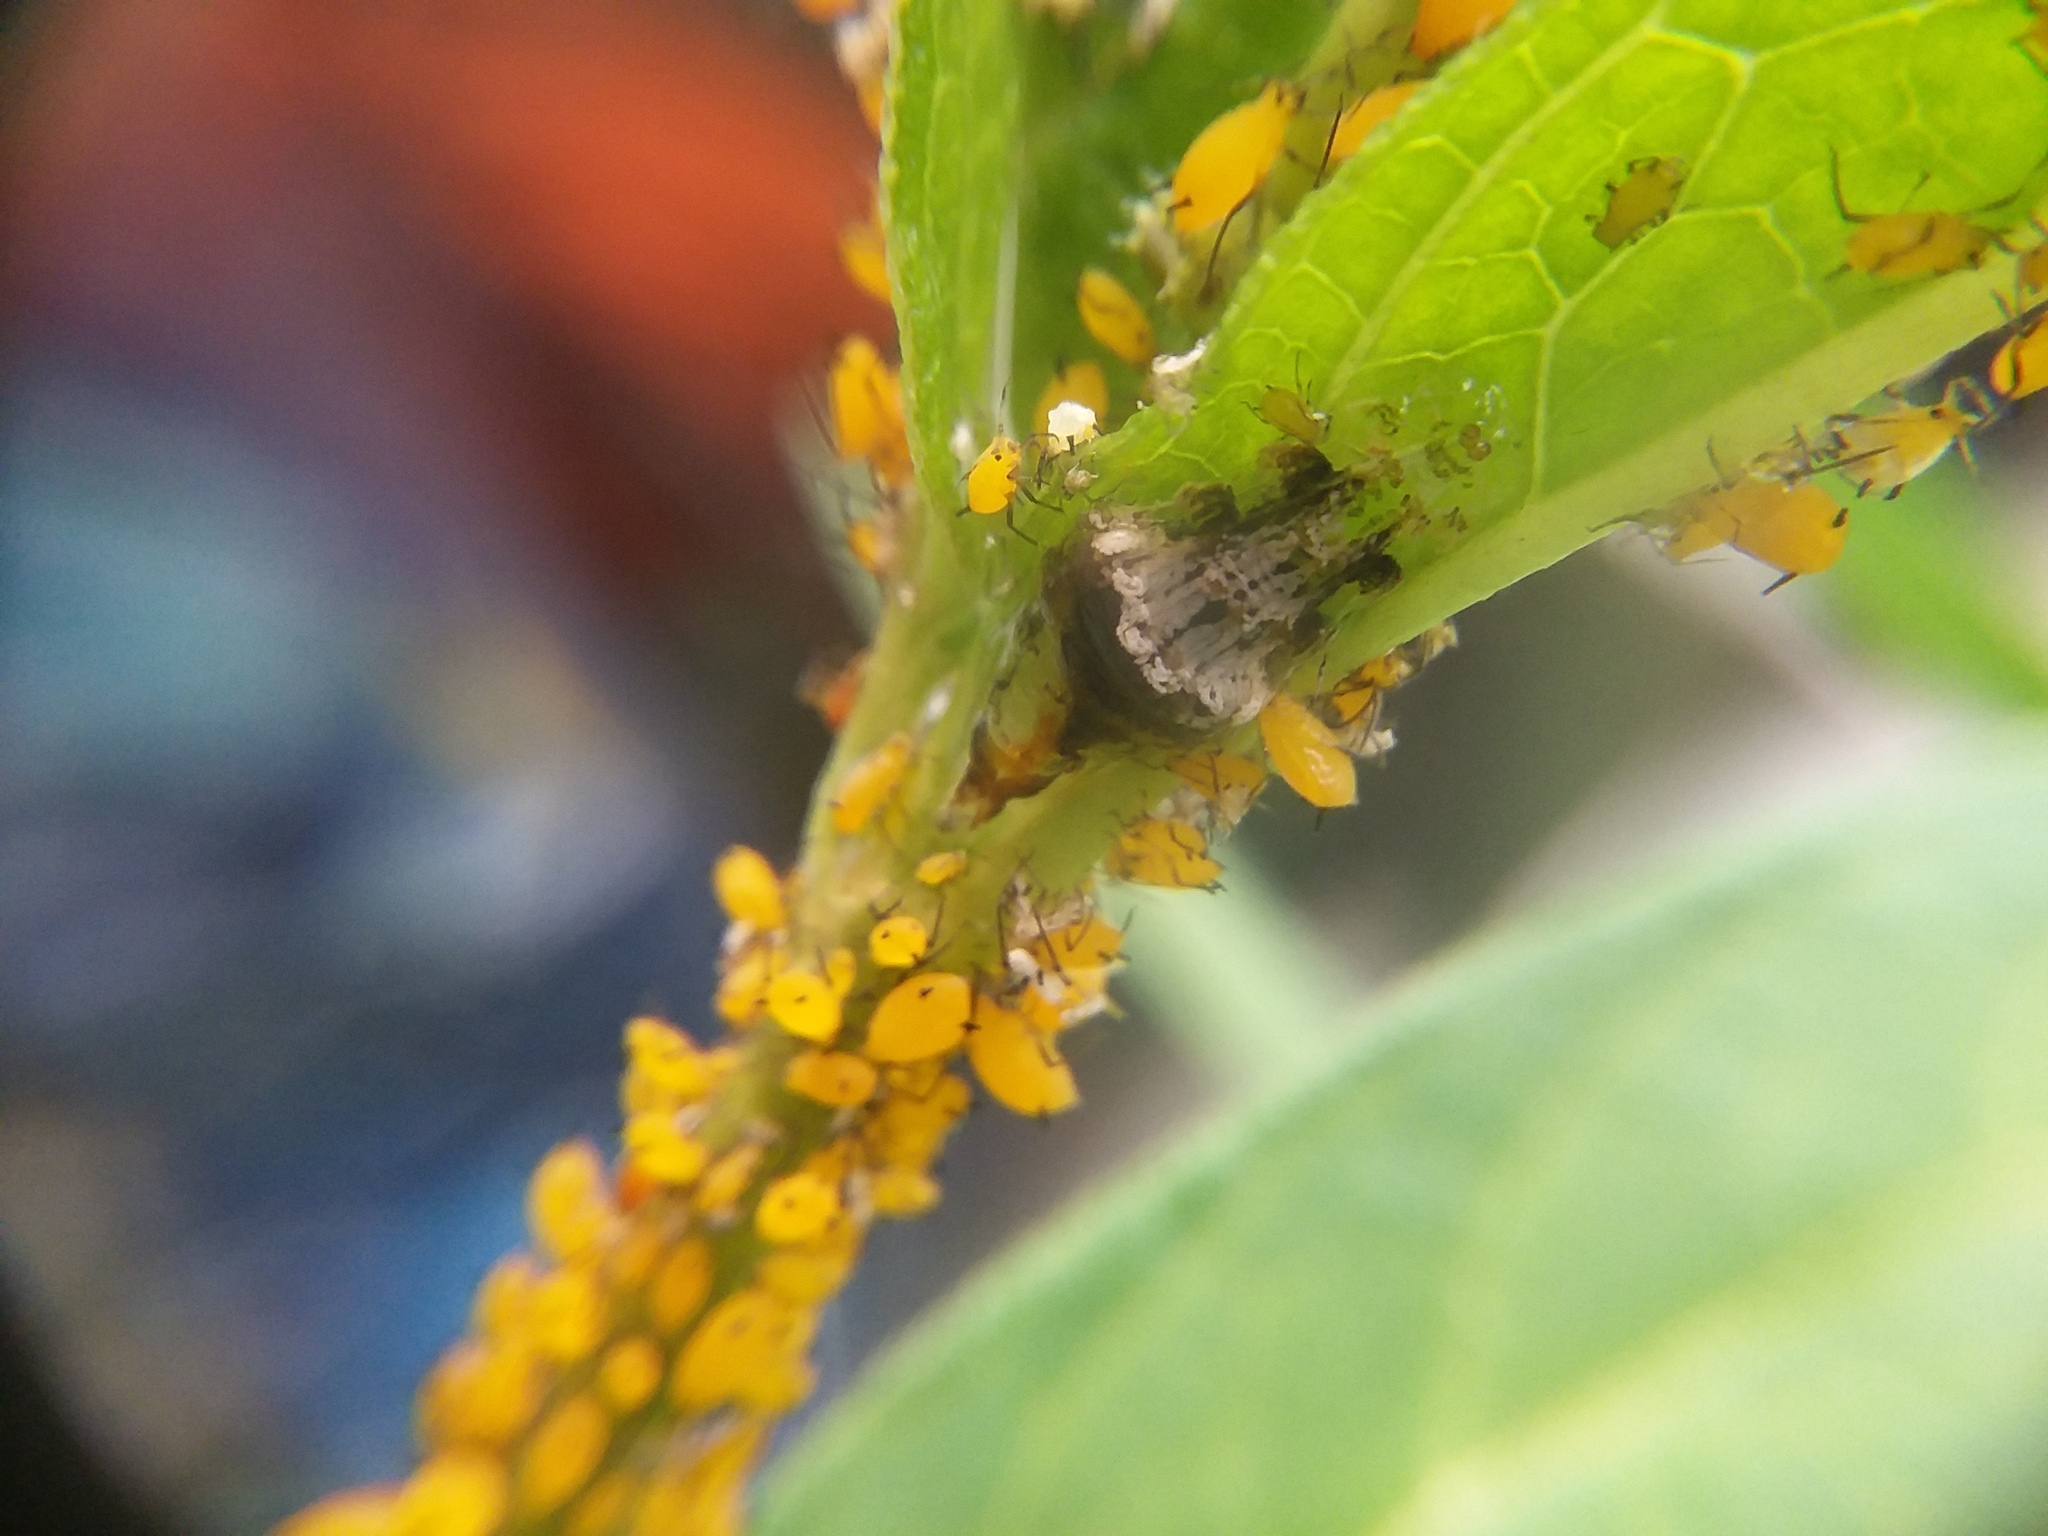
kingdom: Animalia
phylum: Arthropoda
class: Insecta
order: Diptera
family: Syrphidae
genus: Ocyptamus
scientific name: Ocyptamus fuscipennis
